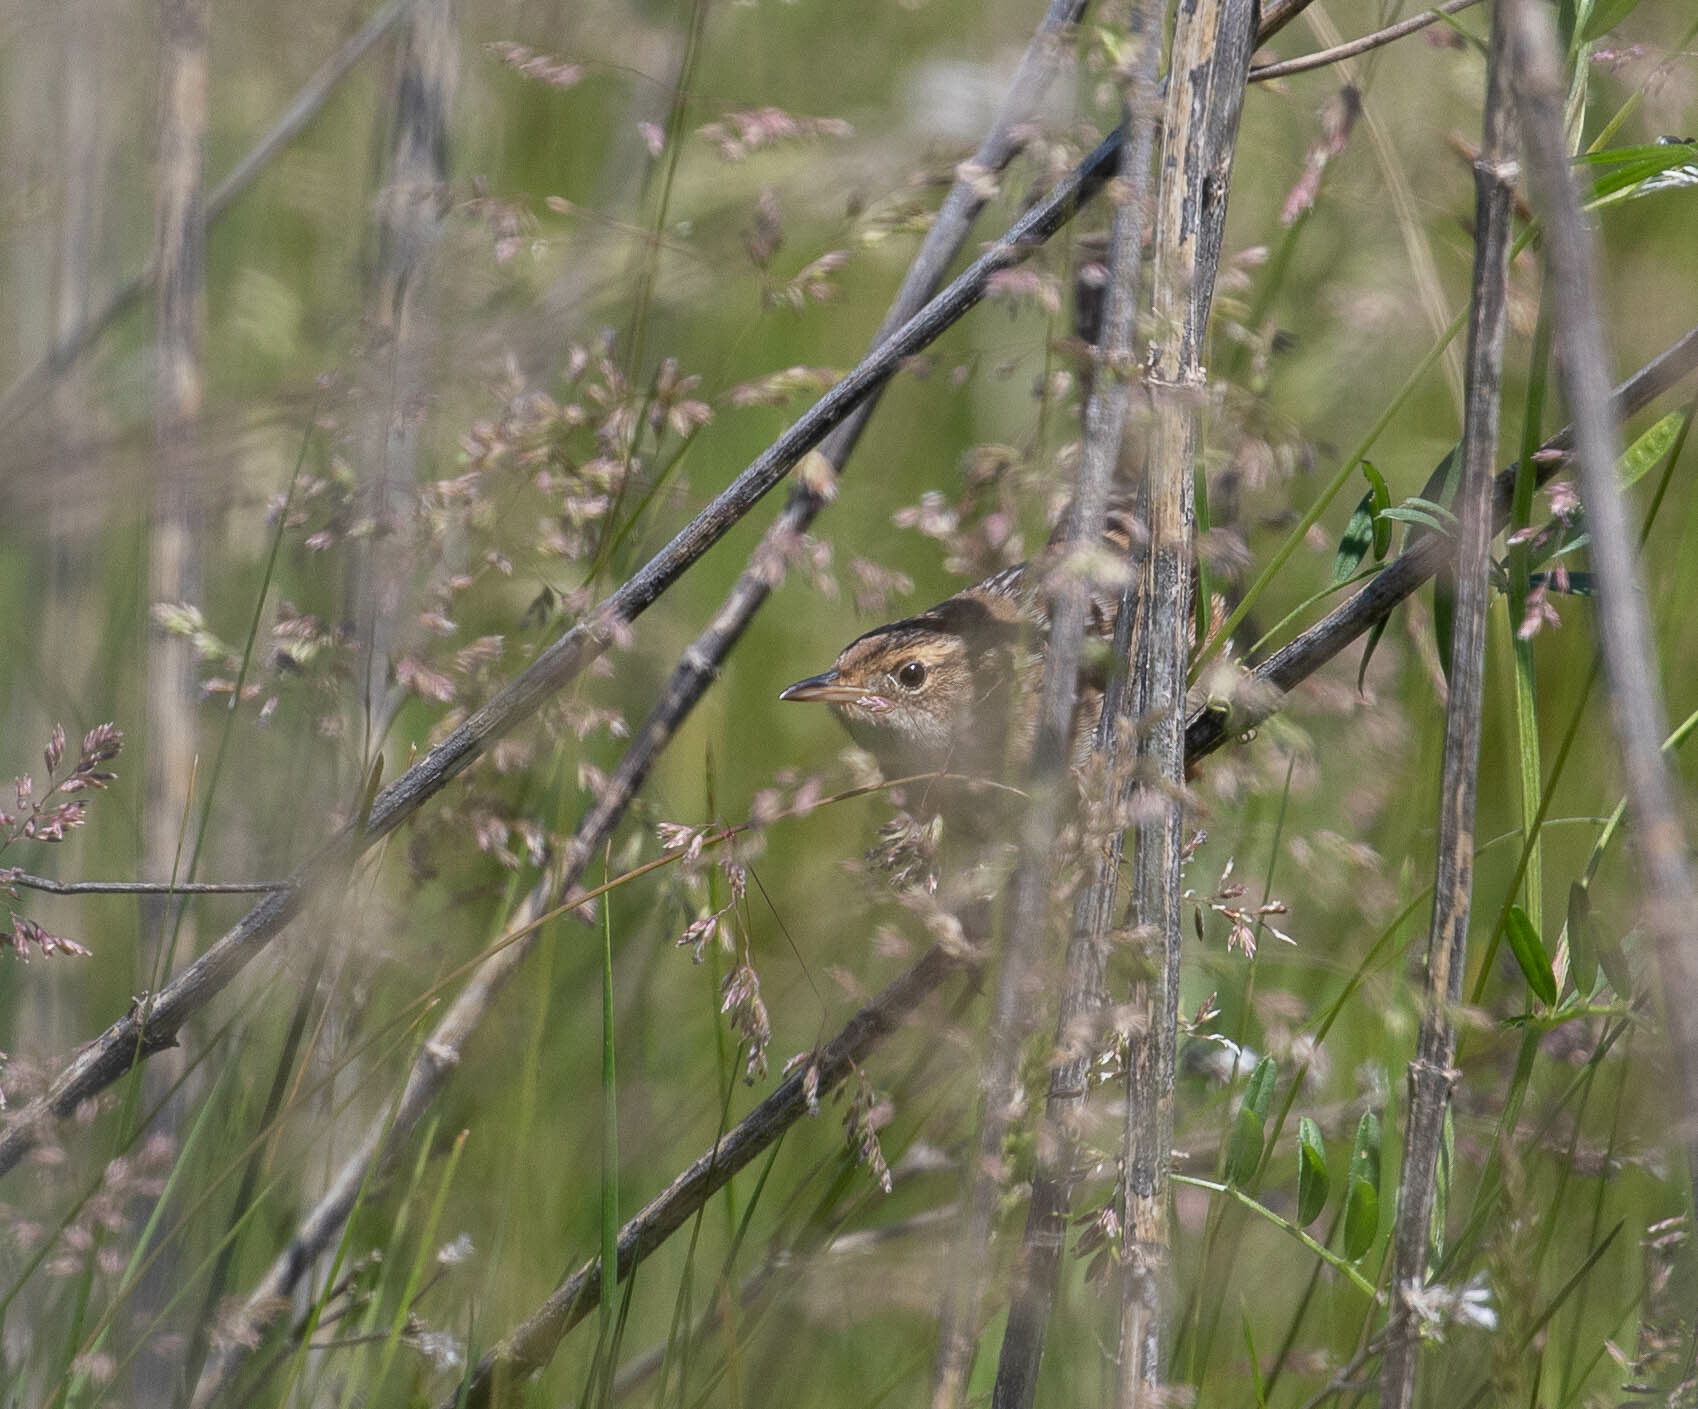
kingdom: Animalia
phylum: Chordata
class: Aves
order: Passeriformes
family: Troglodytidae
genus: Cistothorus
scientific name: Cistothorus platensis
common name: Sedge wren
